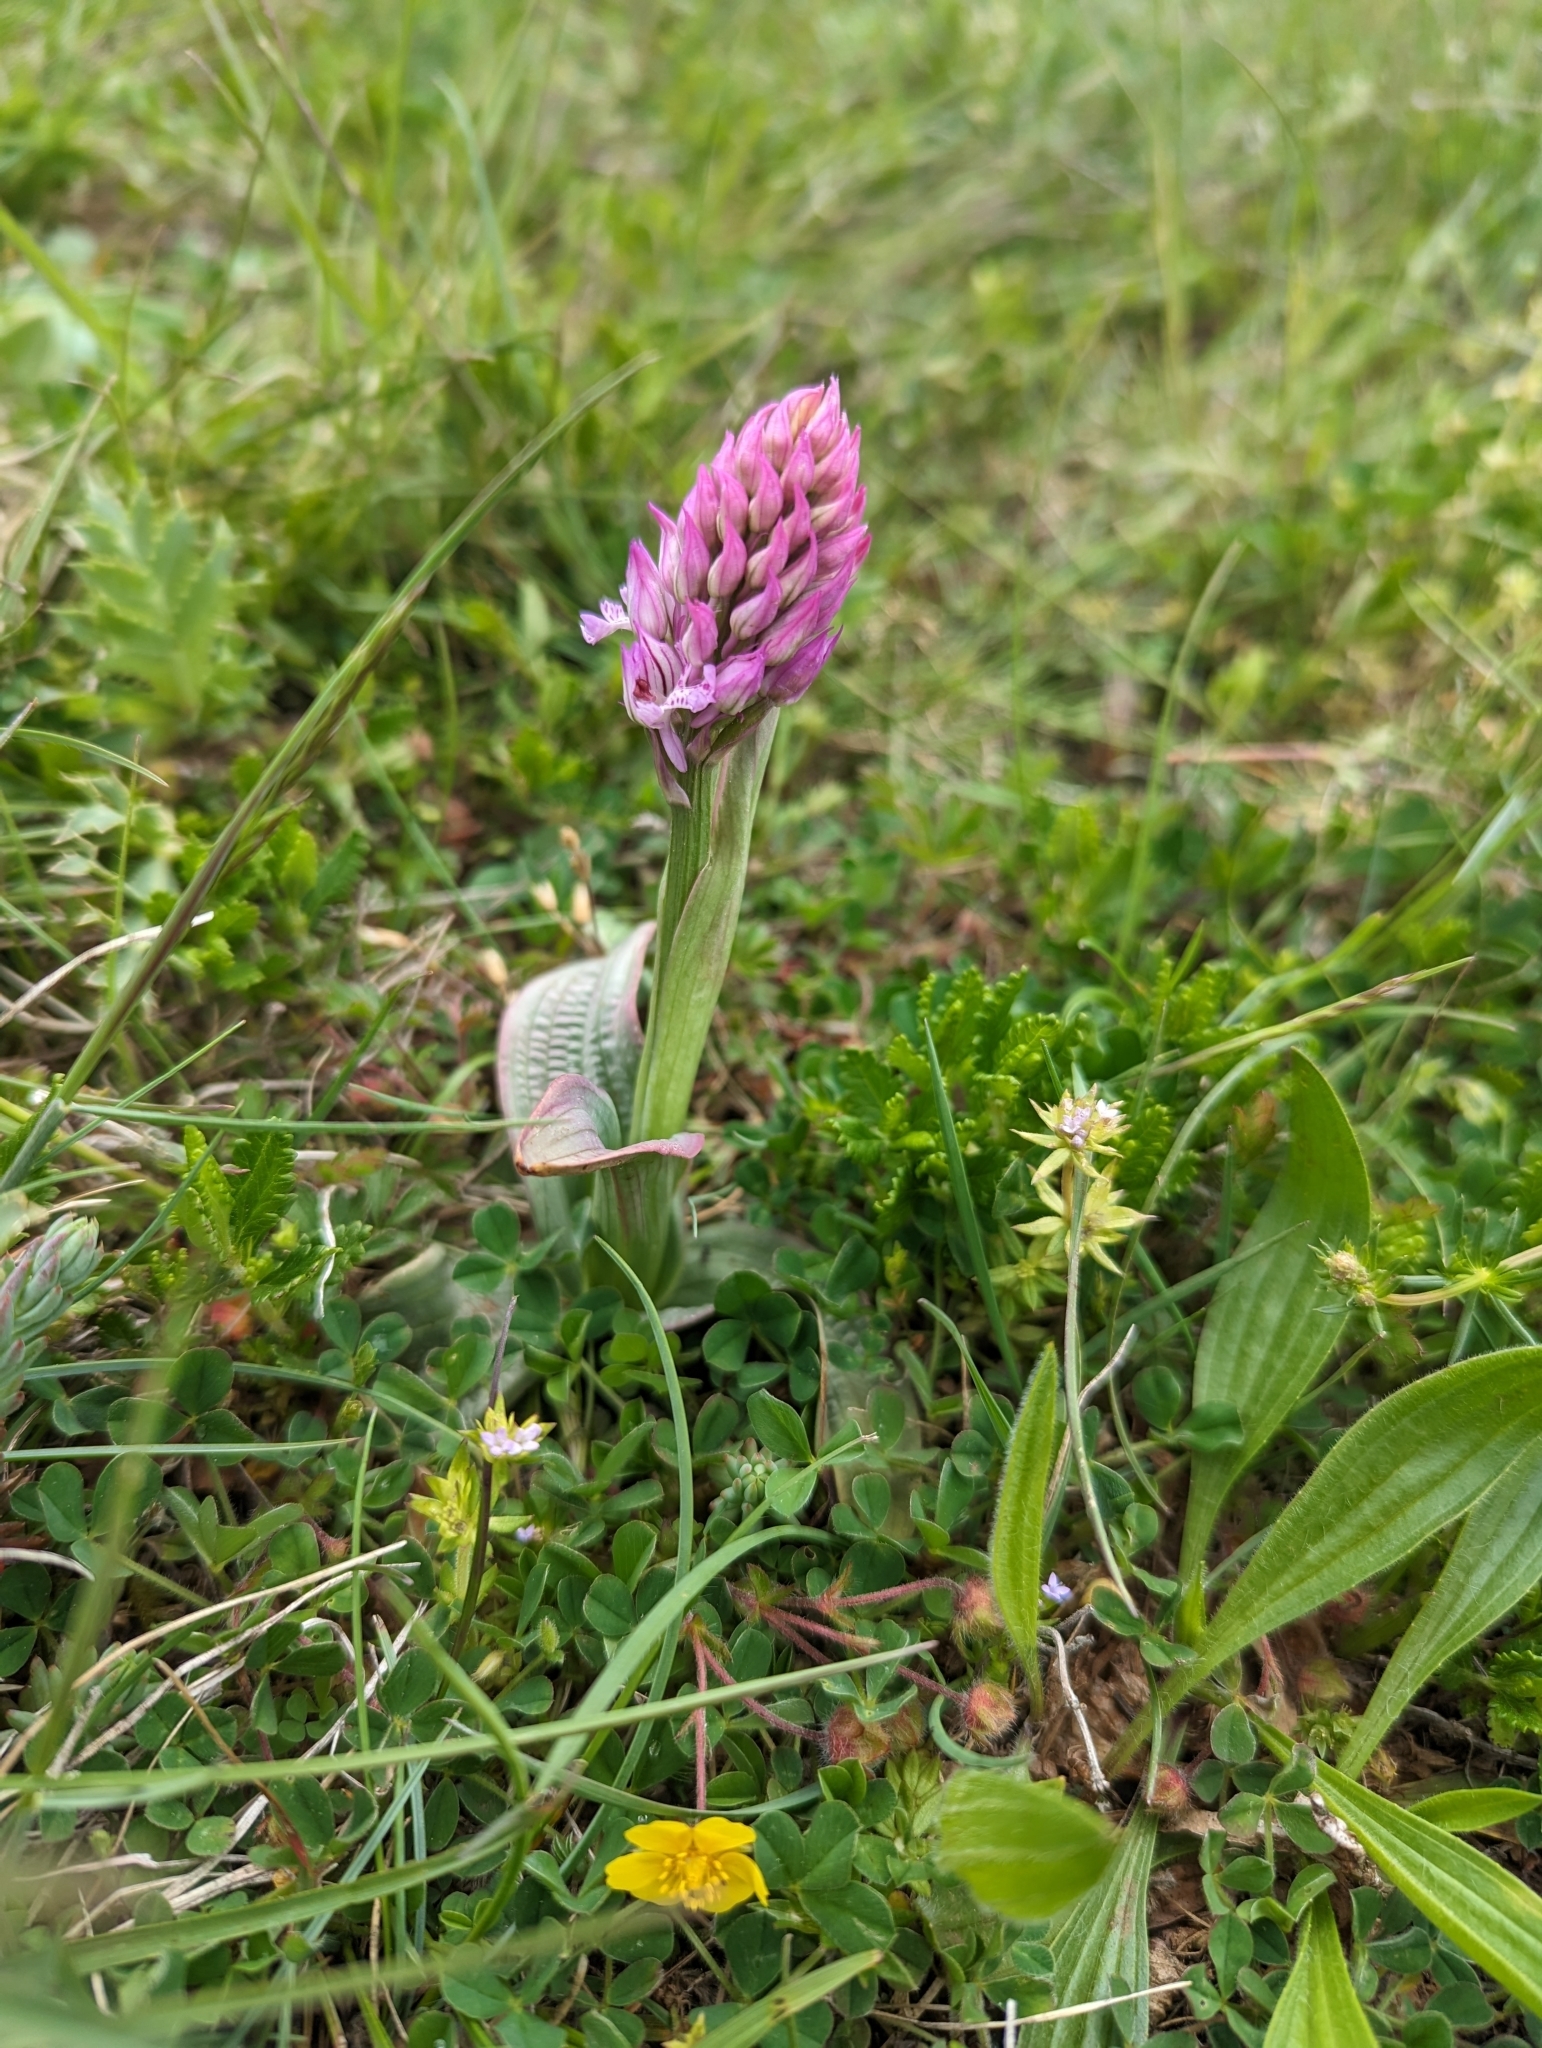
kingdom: Plantae
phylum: Tracheophyta
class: Liliopsida
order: Asparagales
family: Orchidaceae
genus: Neotinea
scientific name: Neotinea tridentata
